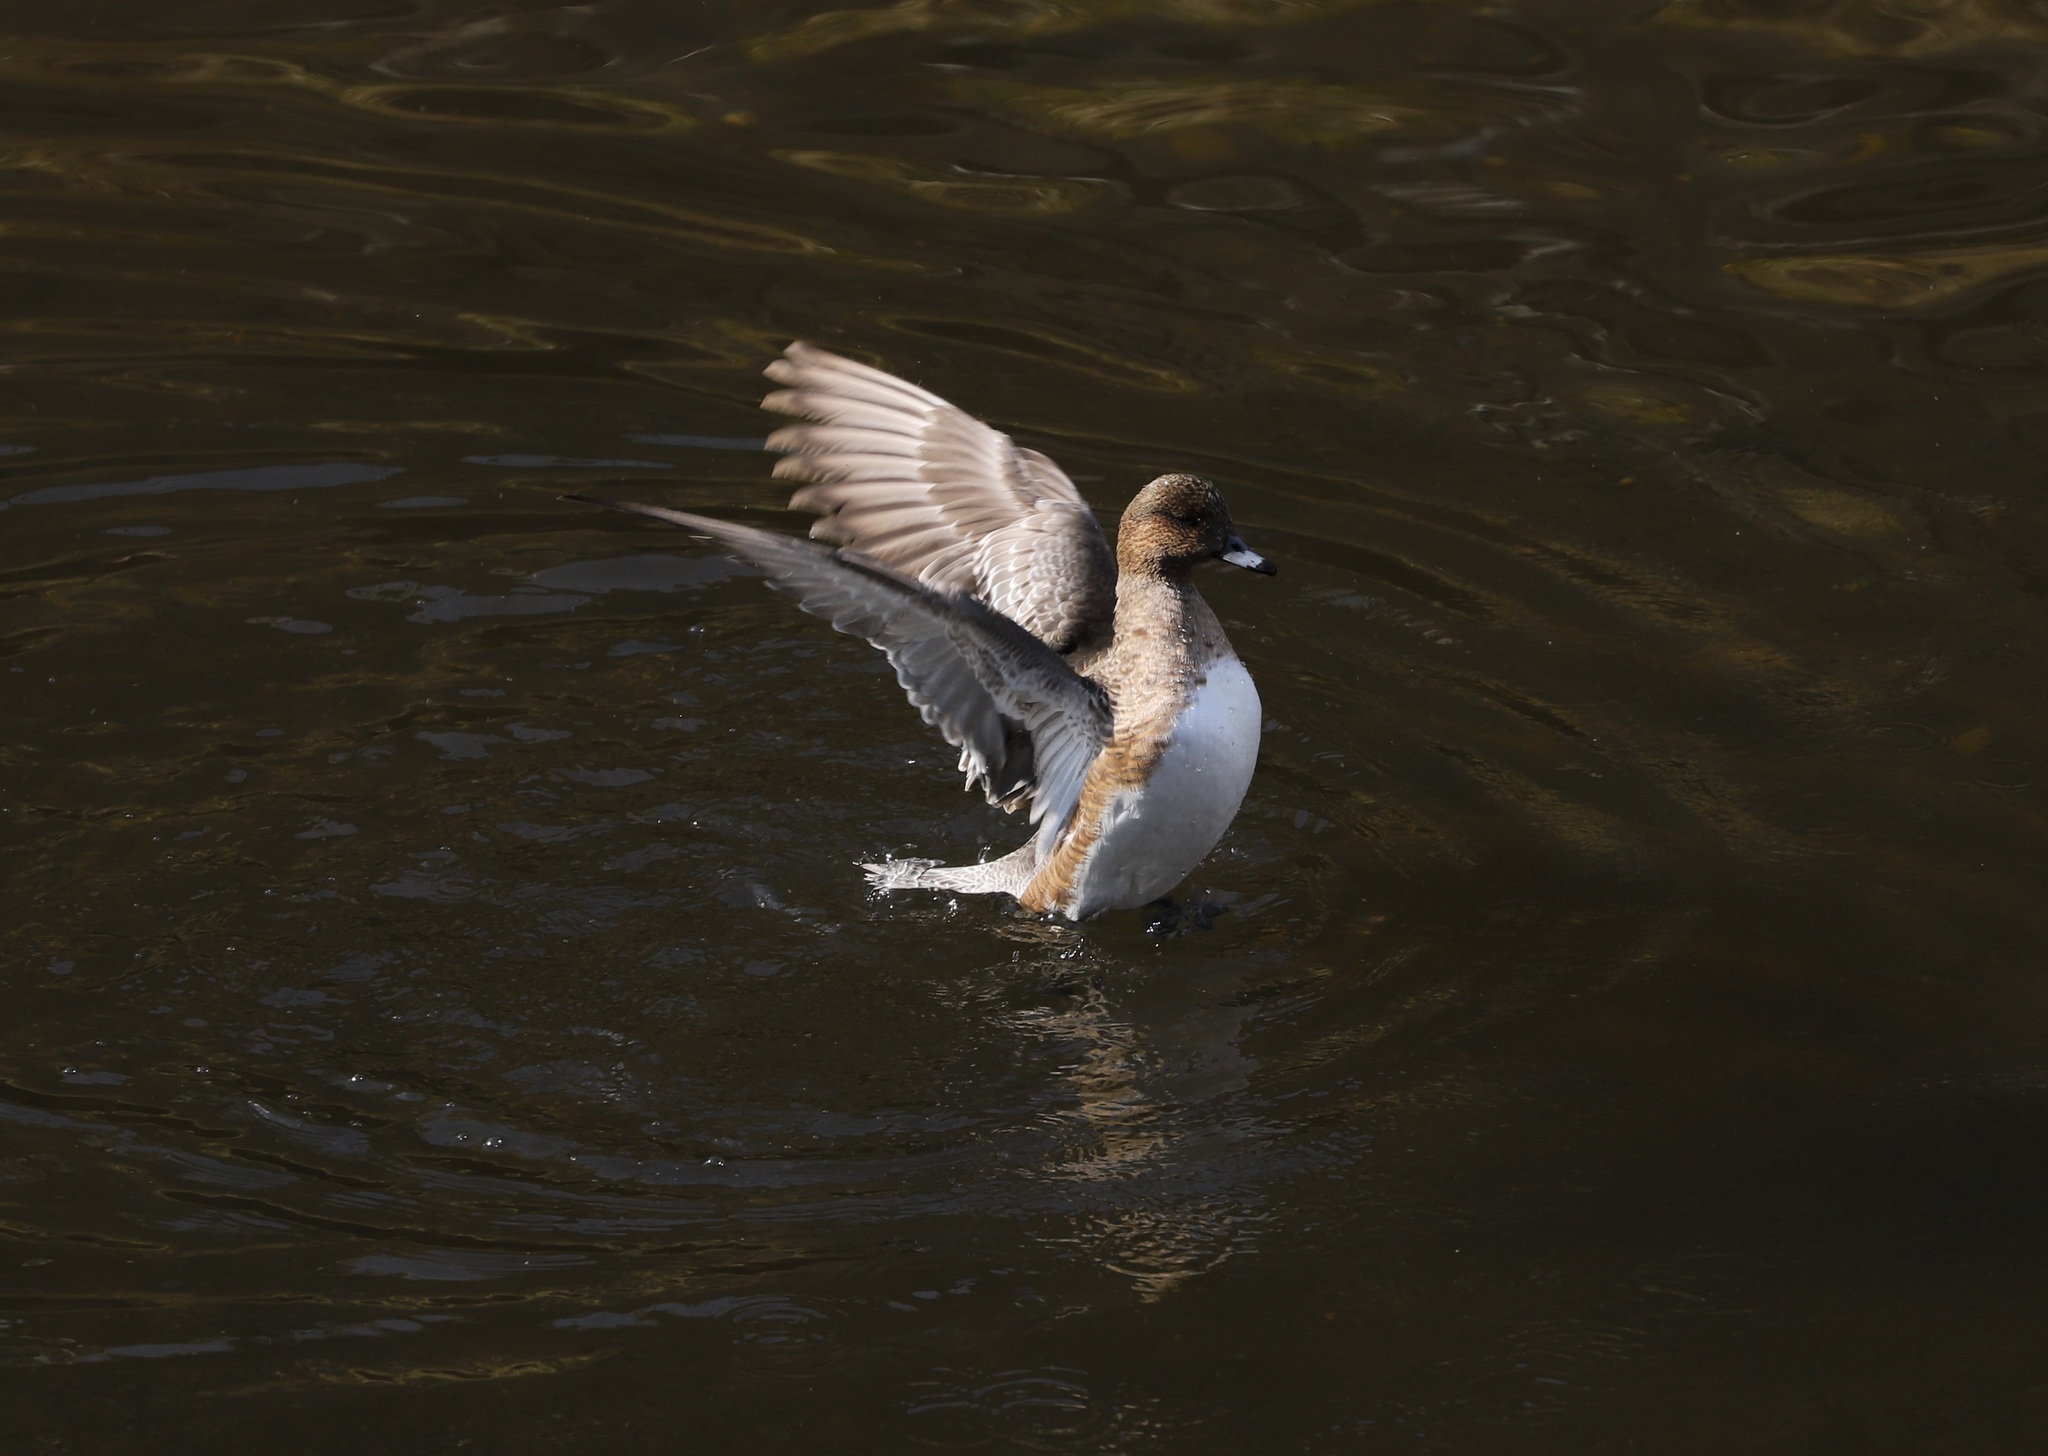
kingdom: Animalia
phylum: Chordata
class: Aves
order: Anseriformes
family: Anatidae
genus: Mareca
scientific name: Mareca penelope
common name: Eurasian wigeon
